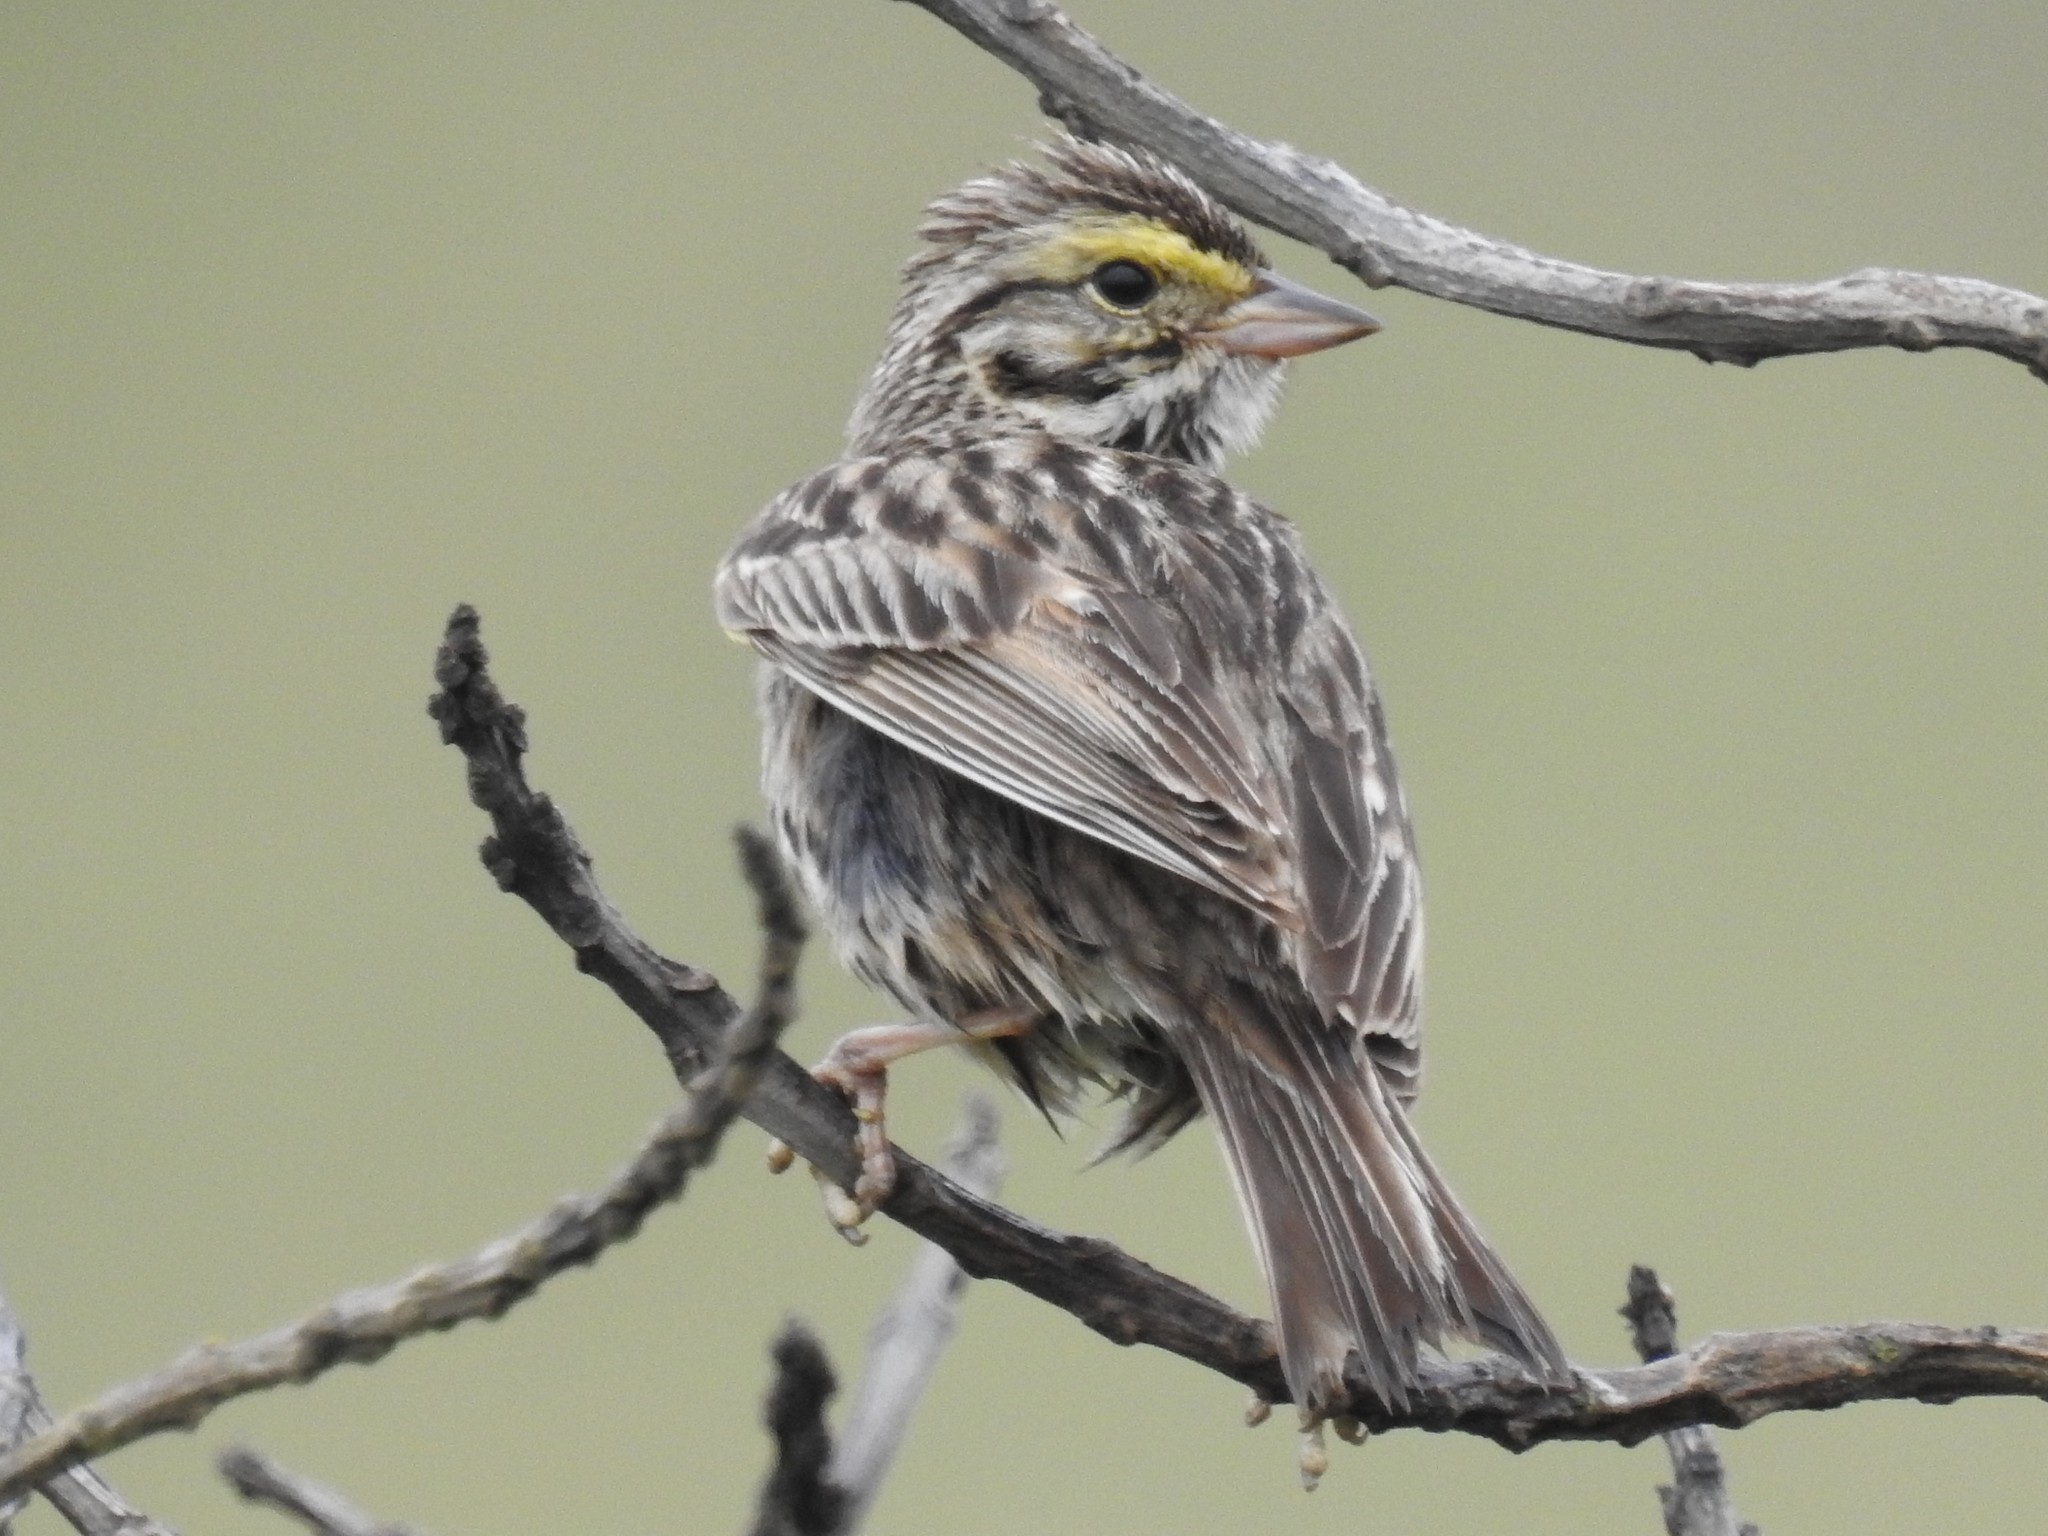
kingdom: Animalia
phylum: Chordata
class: Aves
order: Passeriformes
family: Passerellidae
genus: Passerculus
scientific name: Passerculus sandwichensis
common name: Savannah sparrow
